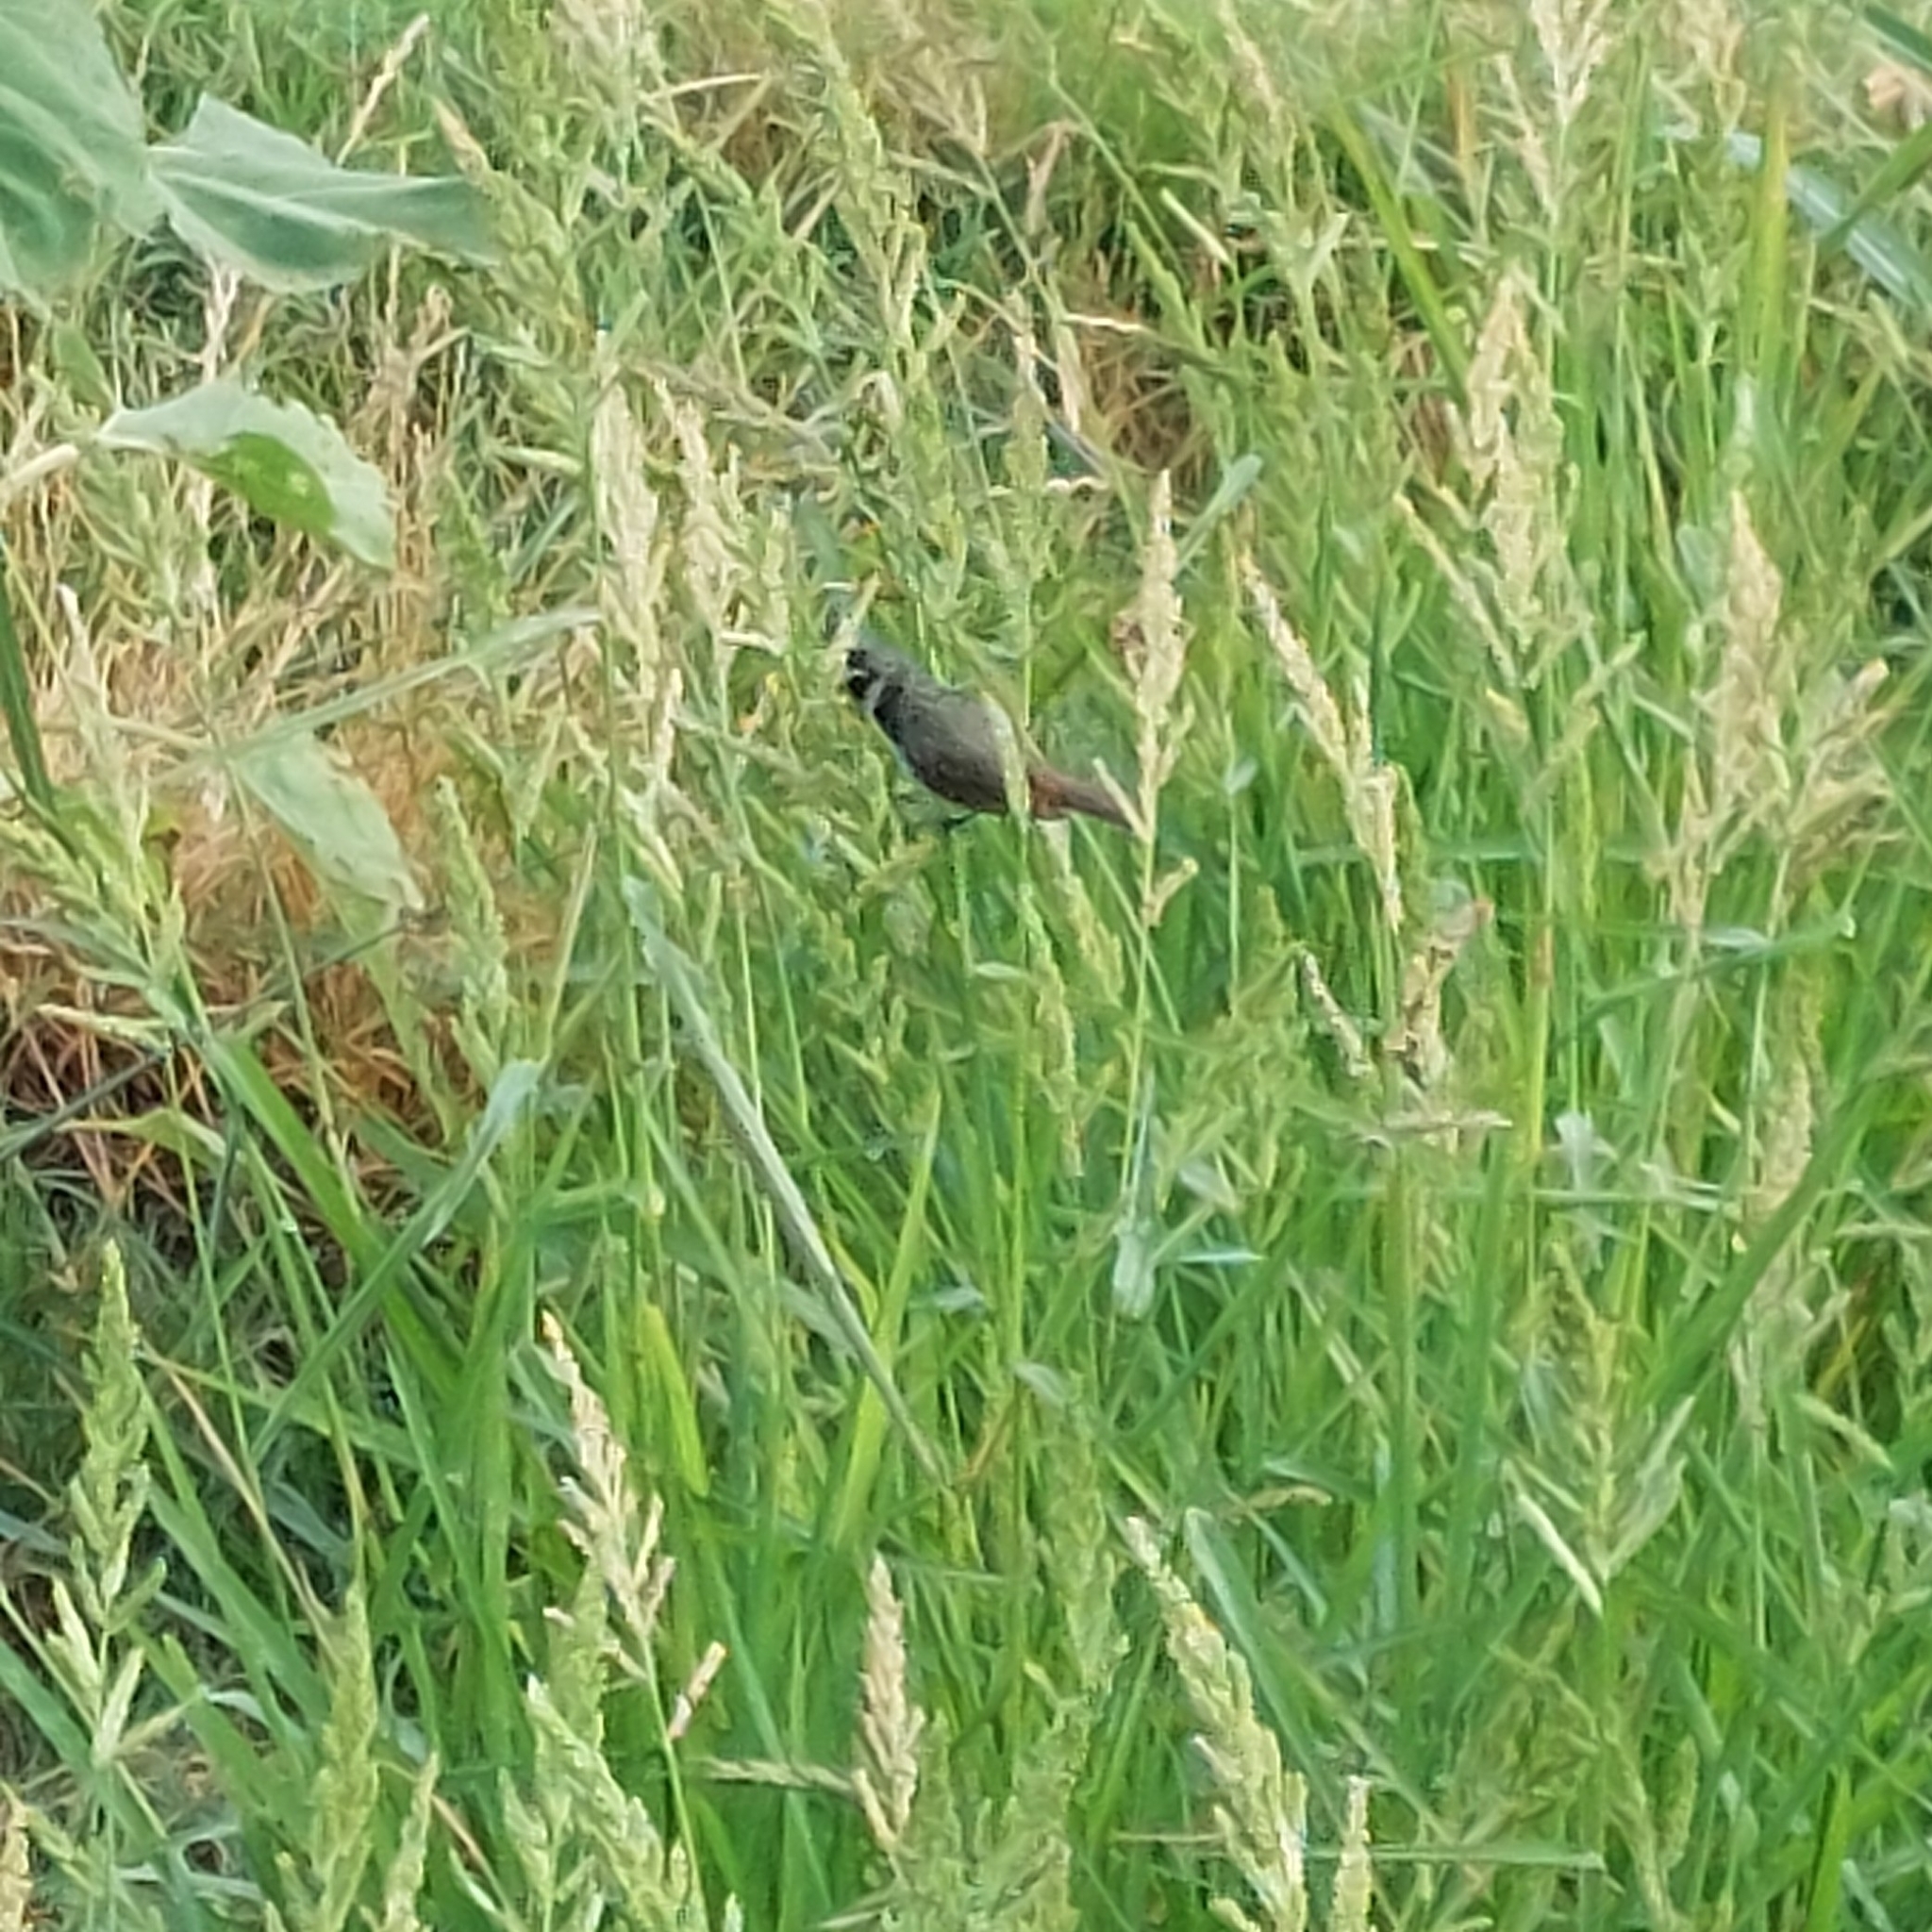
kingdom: Animalia
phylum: Chordata
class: Aves
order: Passeriformes
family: Thraupidae
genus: Sporophila
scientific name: Sporophila caerulescens
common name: Double-collared seedeater
